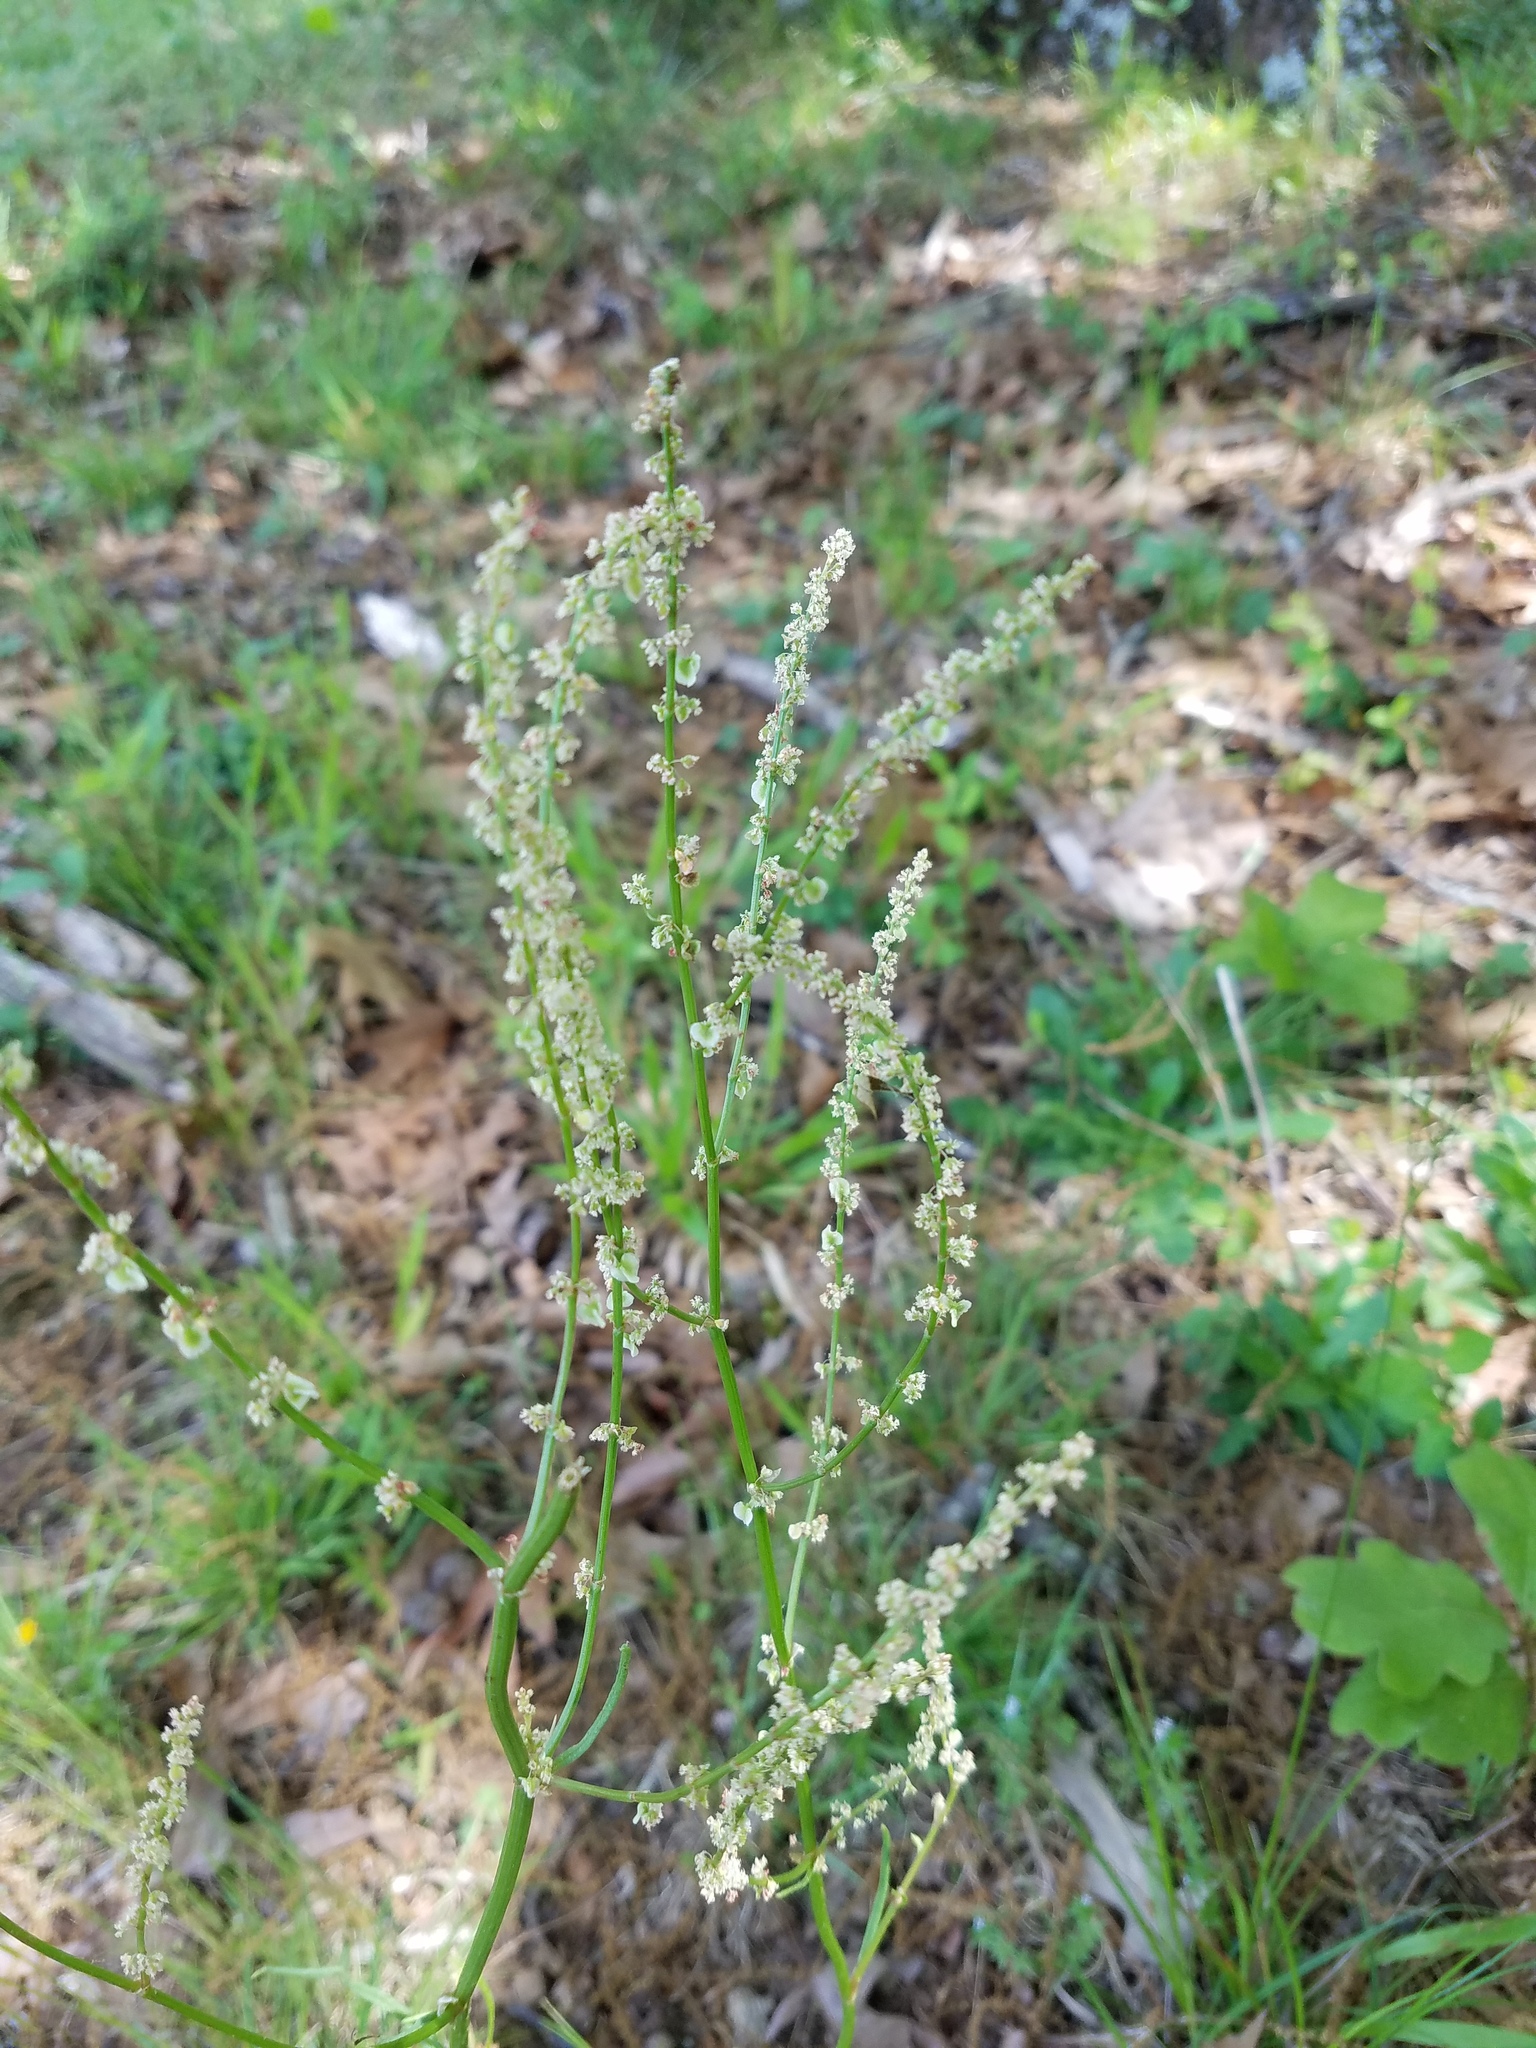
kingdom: Plantae
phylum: Tracheophyta
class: Magnoliopsida
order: Caryophyllales
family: Polygonaceae
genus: Rumex
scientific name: Rumex hastatulus
